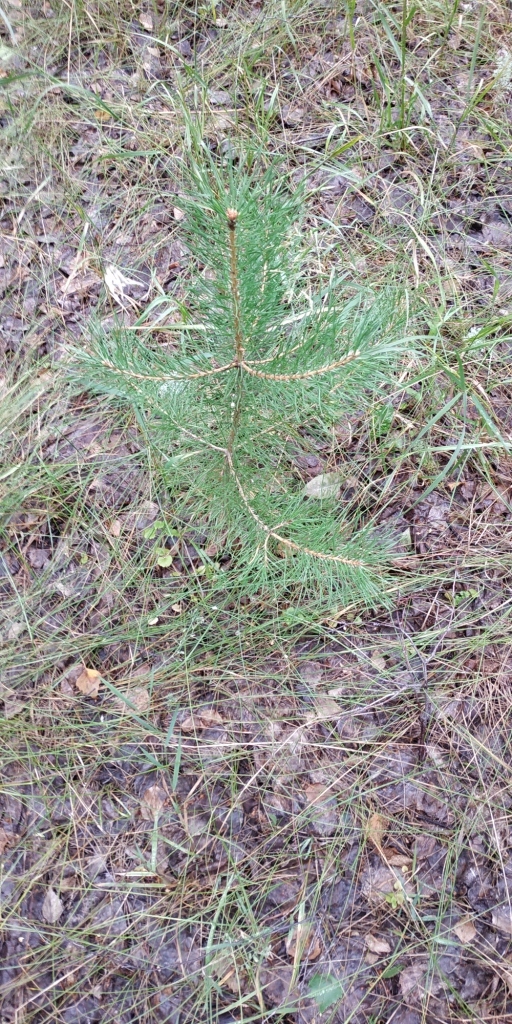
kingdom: Plantae
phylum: Tracheophyta
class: Pinopsida
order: Pinales
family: Pinaceae
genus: Pinus
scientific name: Pinus sylvestris
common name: Scots pine
